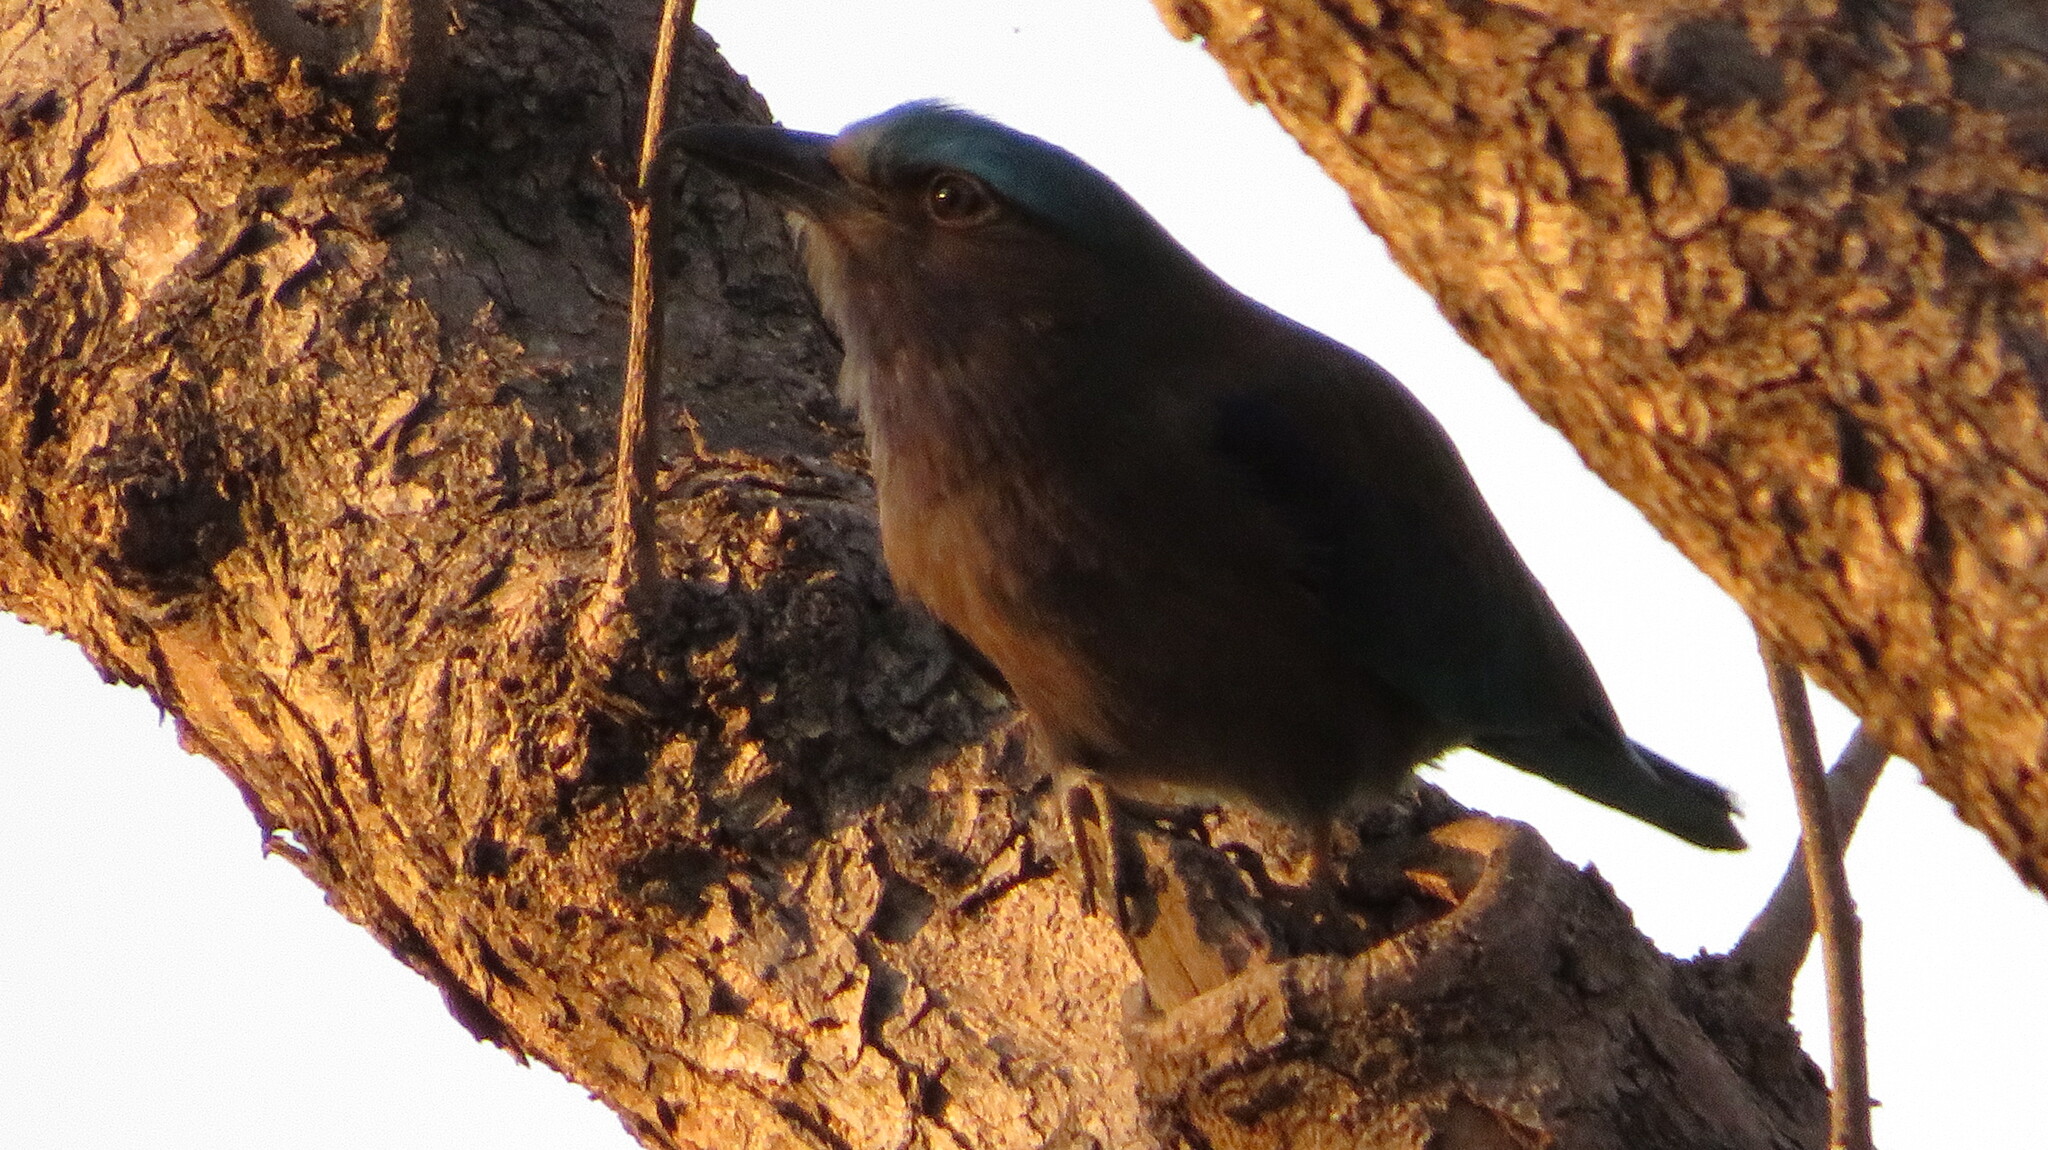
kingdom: Animalia
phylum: Chordata
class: Aves
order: Coraciiformes
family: Coraciidae
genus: Coracias
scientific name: Coracias affinis
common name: Indochinese roller
